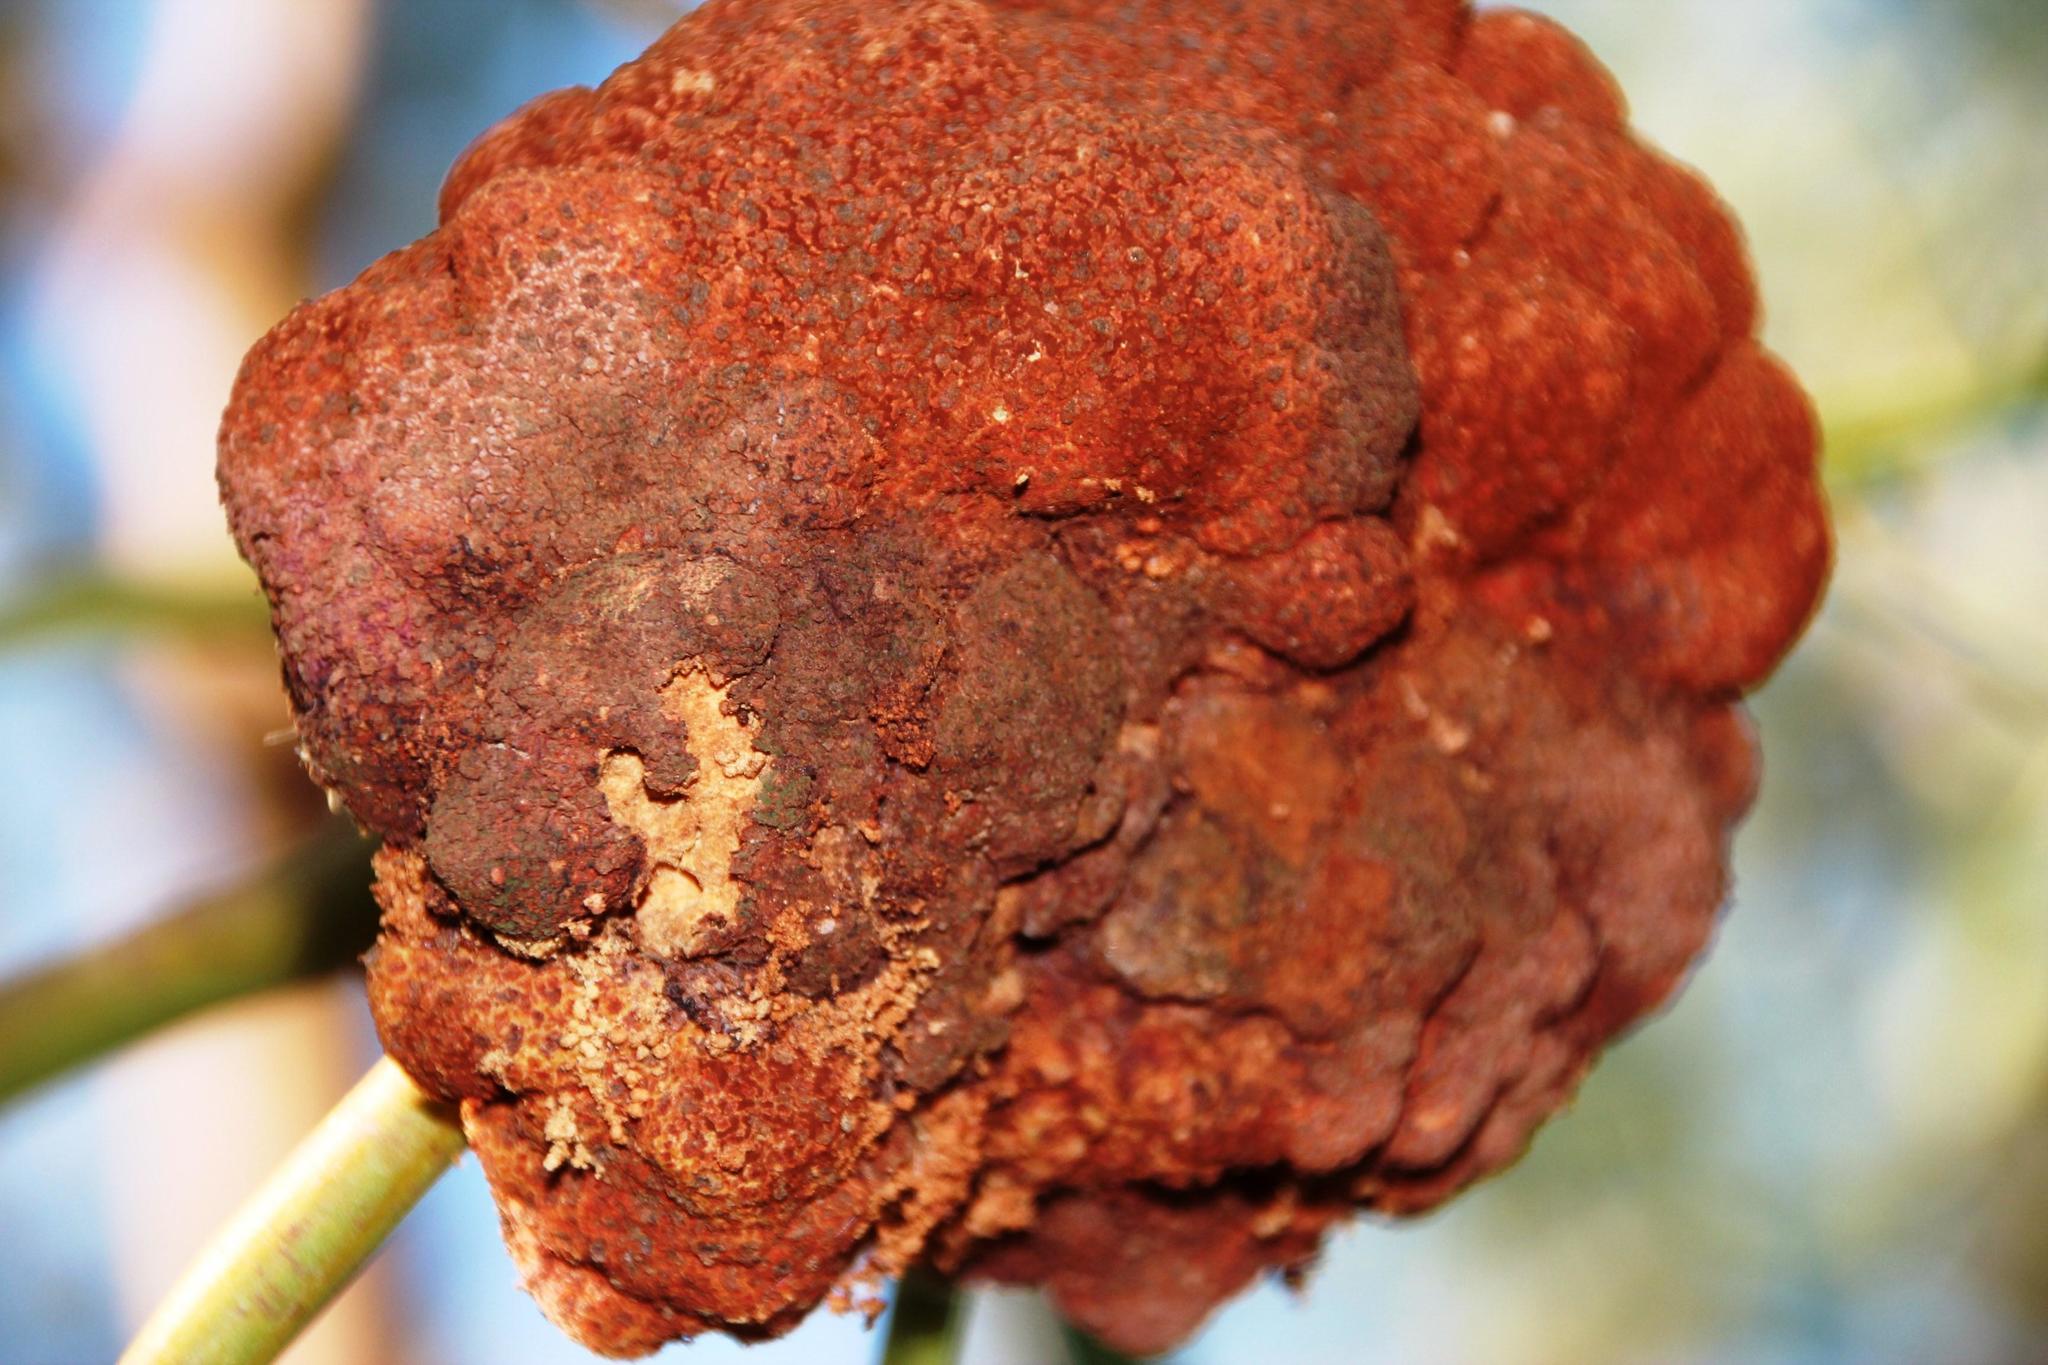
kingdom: Fungi
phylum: Basidiomycota
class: Pucciniomycetes
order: Pucciniales
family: Uromycladiaceae
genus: Uromycladium
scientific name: Uromycladium morrisii
